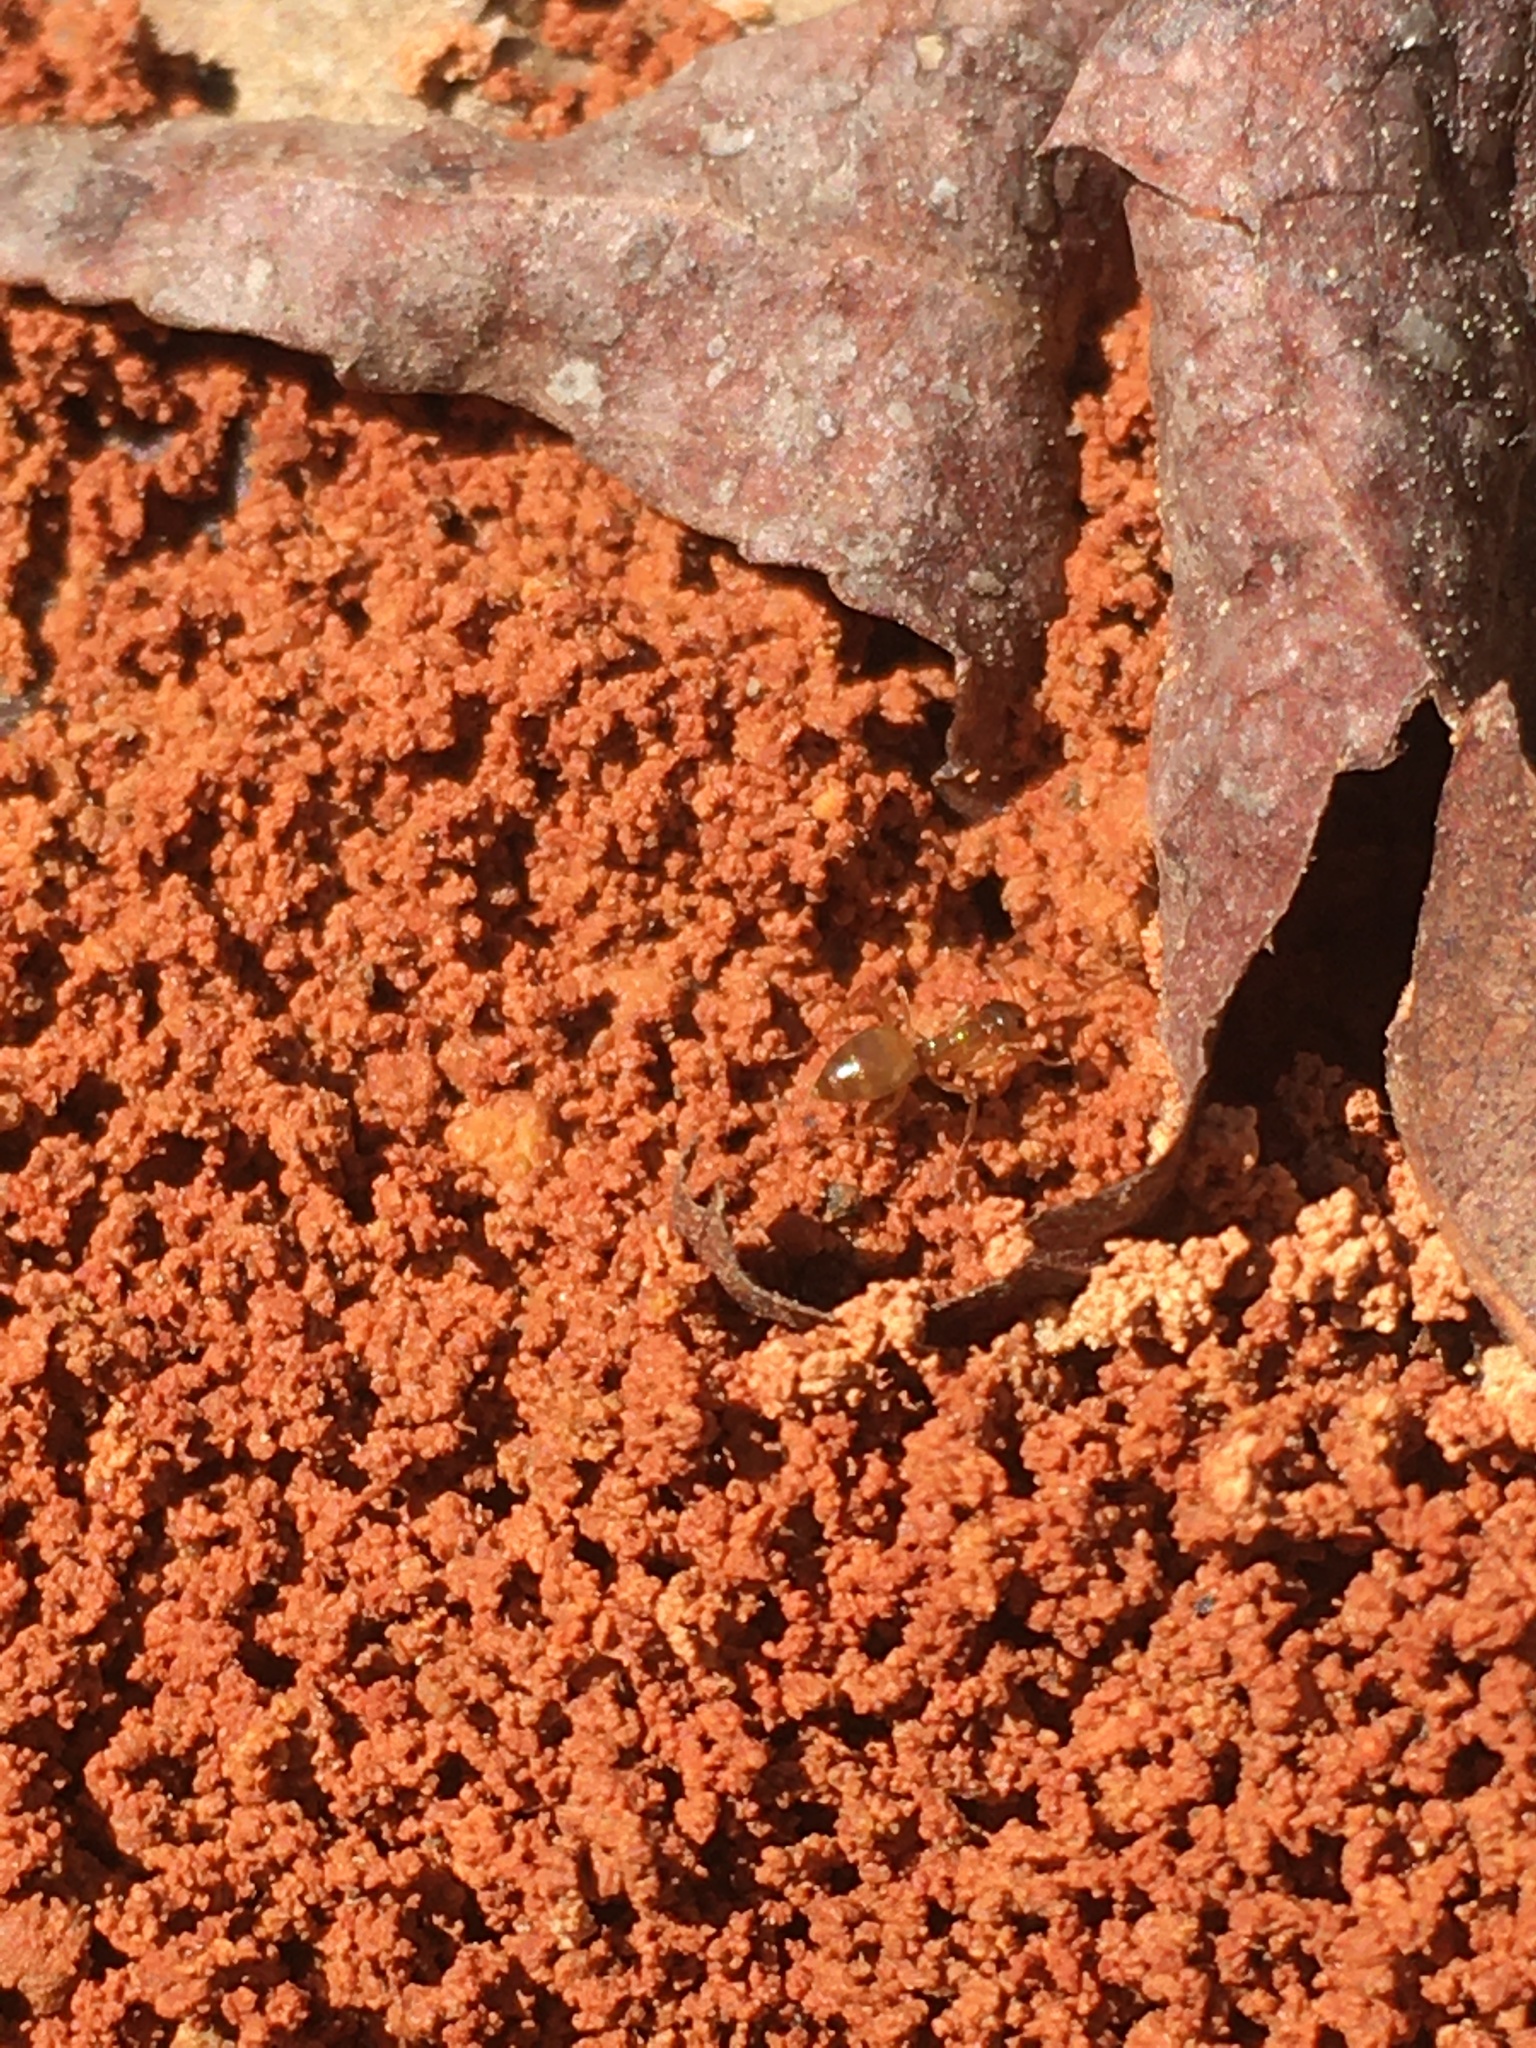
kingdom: Animalia
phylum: Arthropoda
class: Insecta
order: Hymenoptera
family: Formicidae
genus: Prenolepis
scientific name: Prenolepis imparis
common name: Small honey ant
